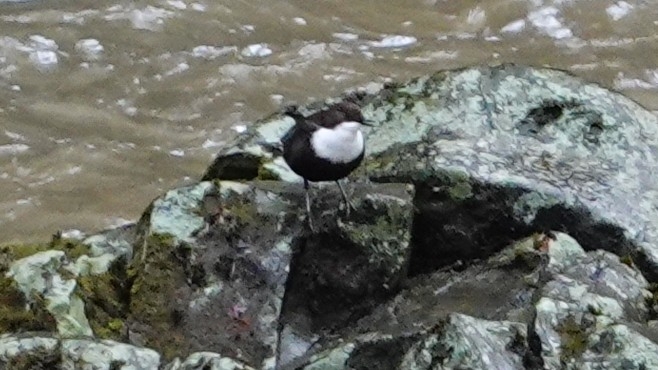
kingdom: Animalia
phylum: Chordata
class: Aves
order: Passeriformes
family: Cinclidae
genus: Cinclus
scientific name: Cinclus cinclus
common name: White-throated dipper
